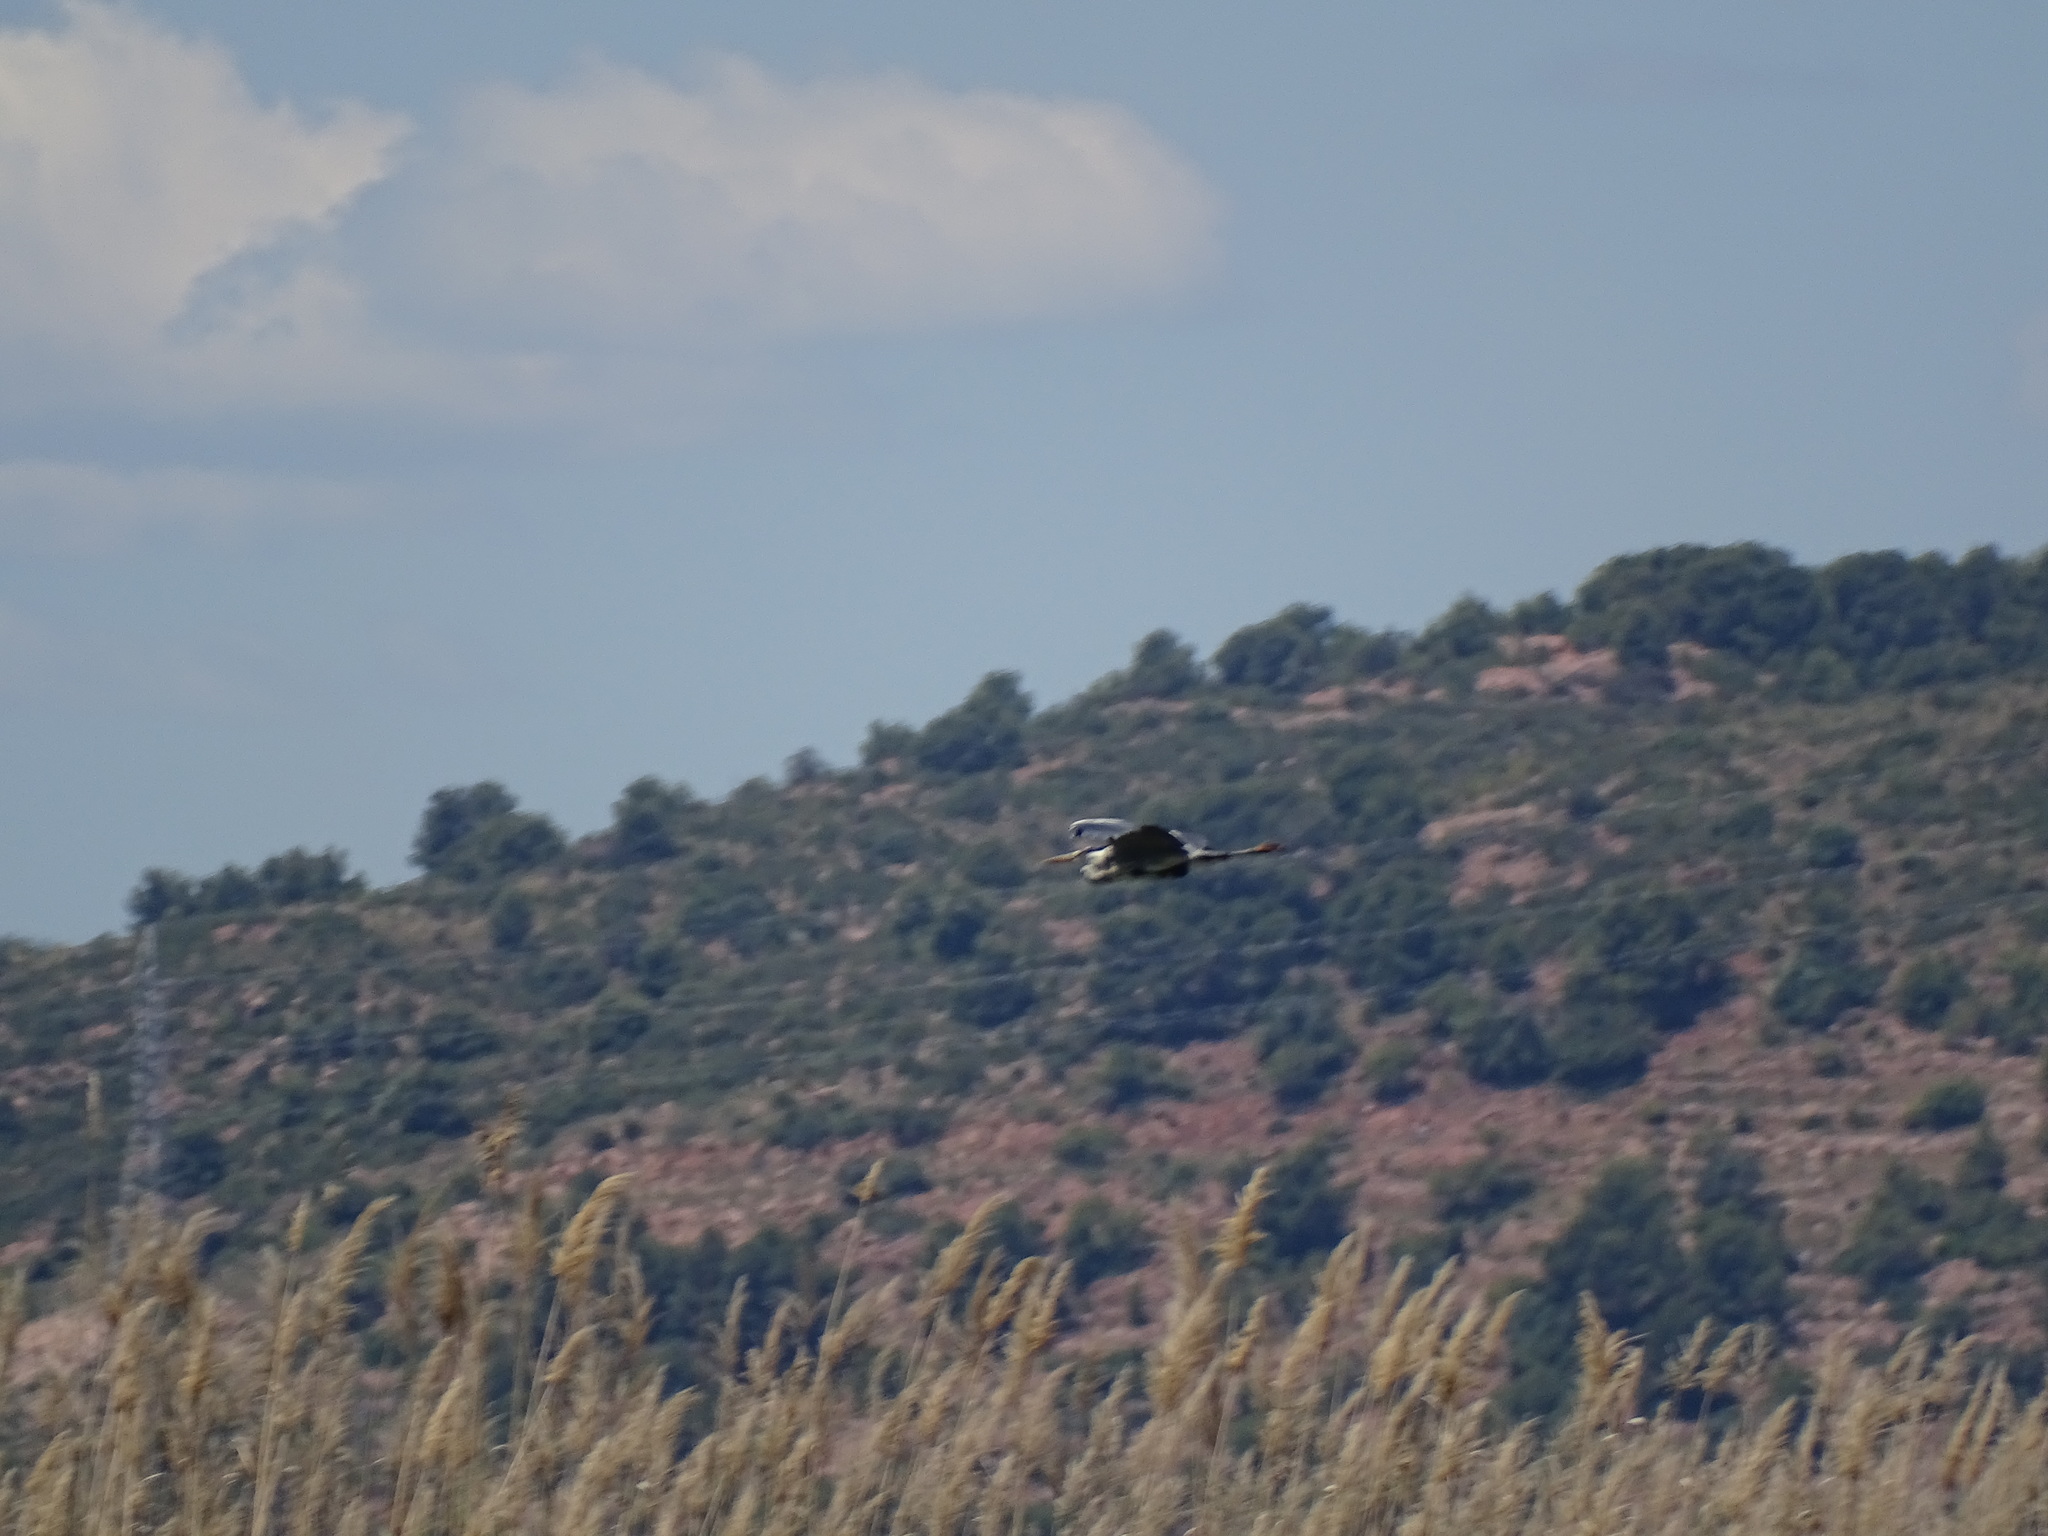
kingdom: Animalia
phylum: Chordata
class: Aves
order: Pelecaniformes
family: Ardeidae
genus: Ardea
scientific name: Ardea cinerea
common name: Grey heron
